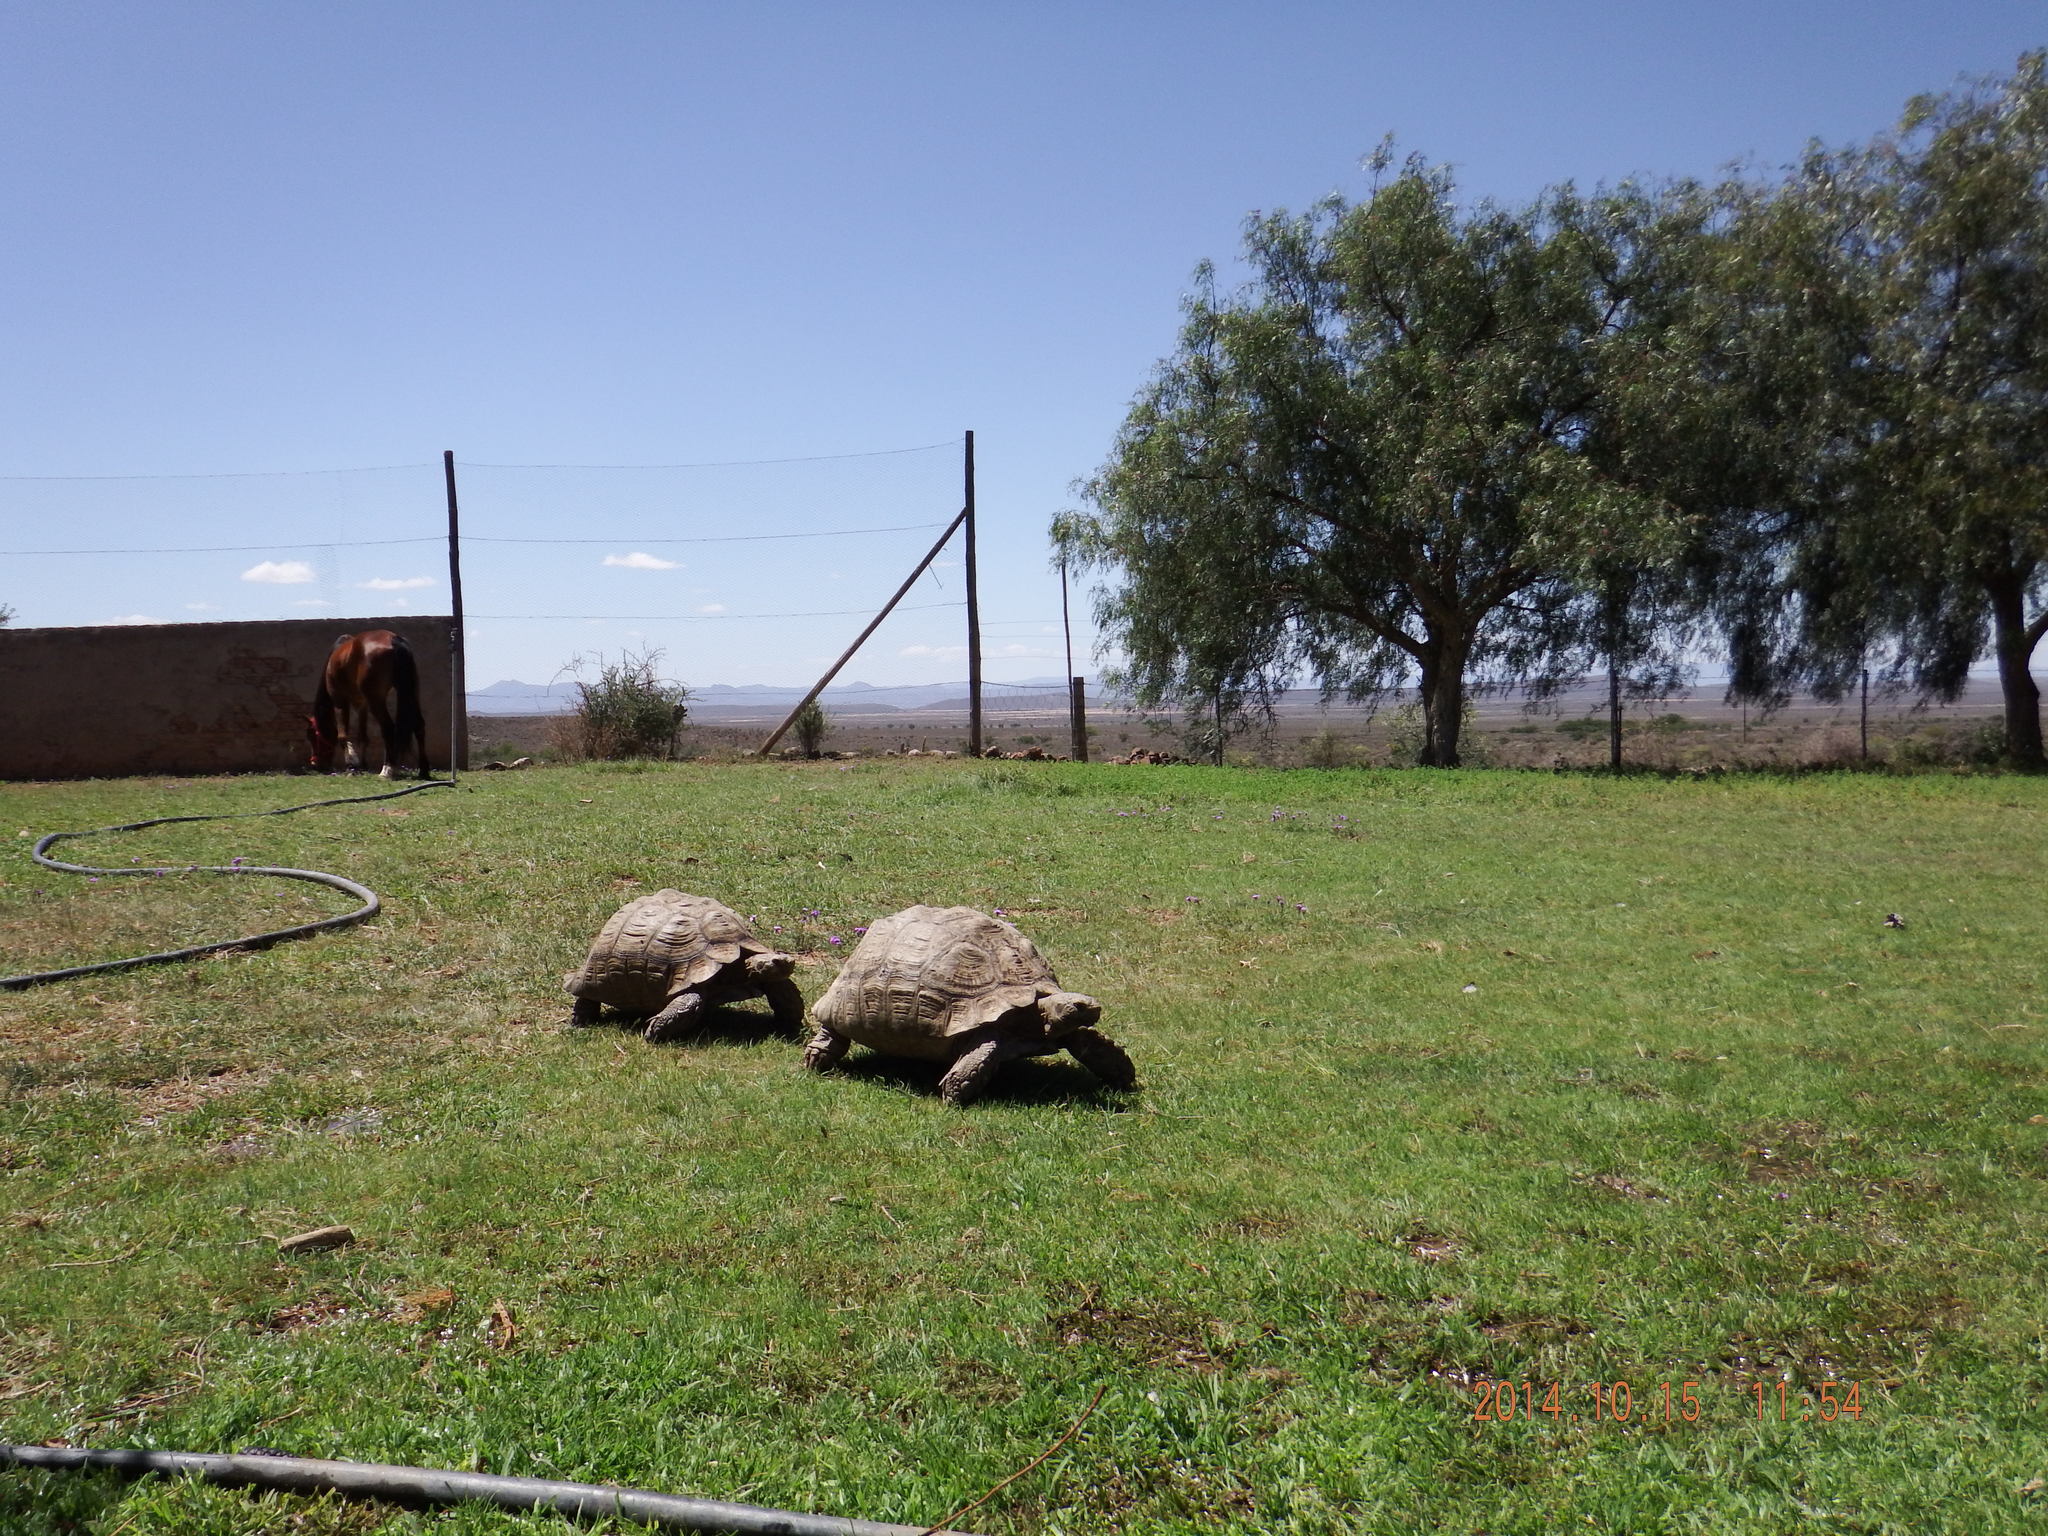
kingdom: Animalia
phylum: Chordata
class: Testudines
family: Testudinidae
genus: Stigmochelys
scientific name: Stigmochelys pardalis
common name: Leopard tortoise
